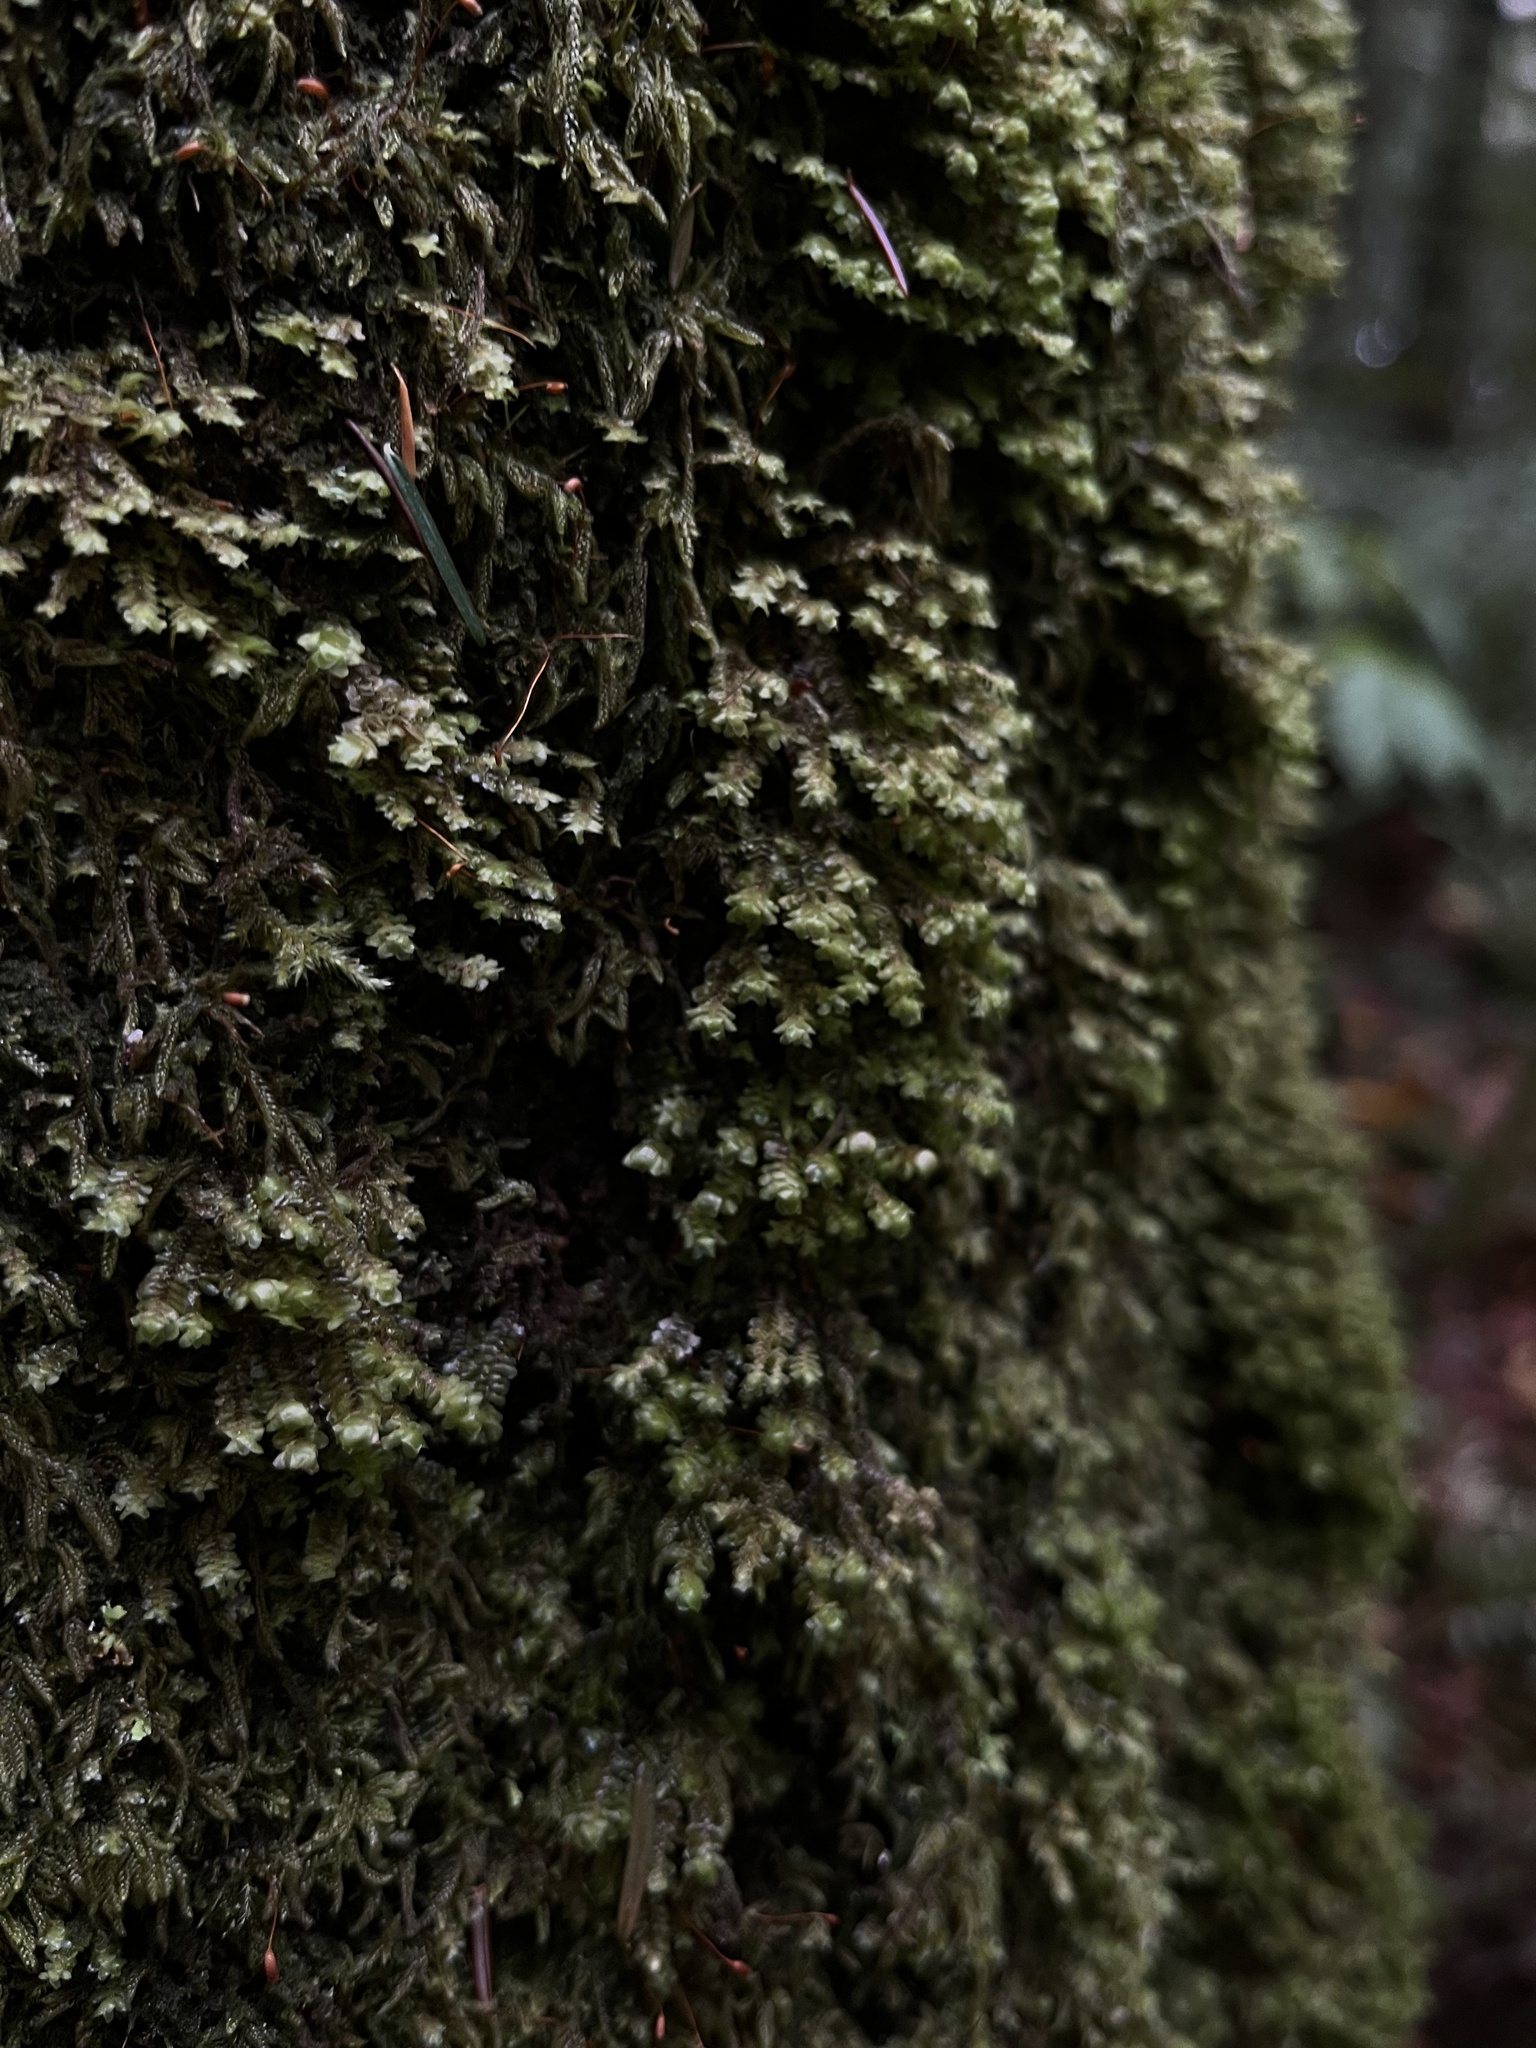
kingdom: Plantae
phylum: Marchantiophyta
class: Jungermanniopsida
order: Jungermanniales
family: Scapaniaceae
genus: Scapania
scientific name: Scapania bolanderi
